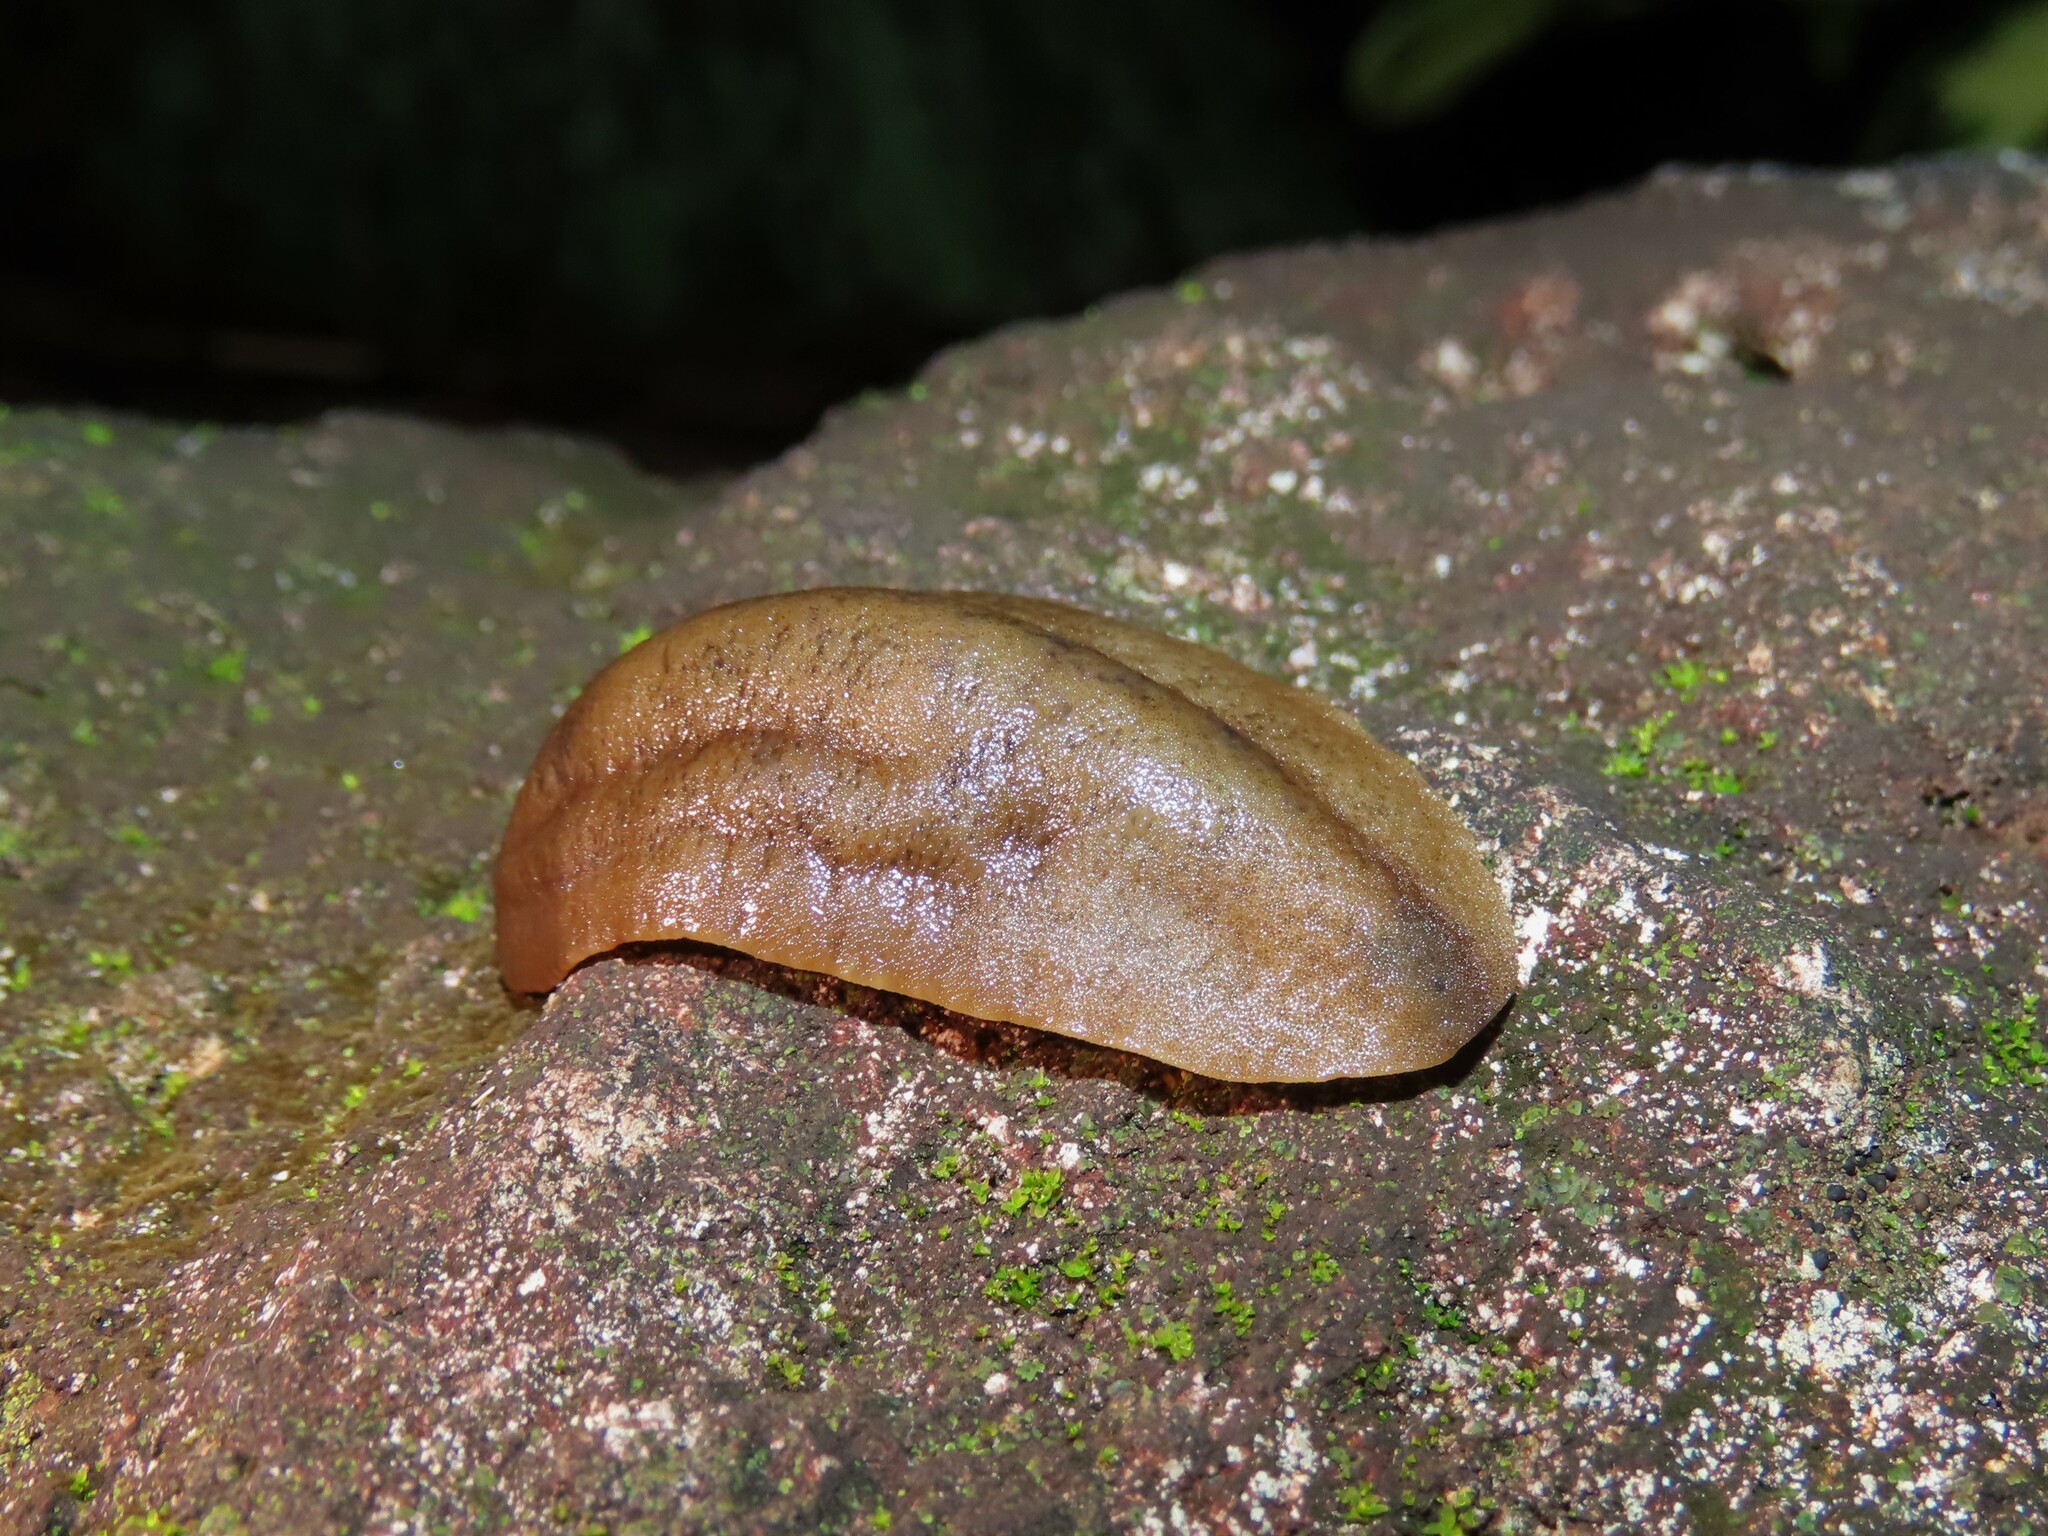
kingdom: Animalia
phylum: Mollusca
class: Gastropoda
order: Systellommatophora
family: Veronicellidae
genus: Sarasinula
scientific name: Sarasinula plebeia
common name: Caribbean leatherleaf
